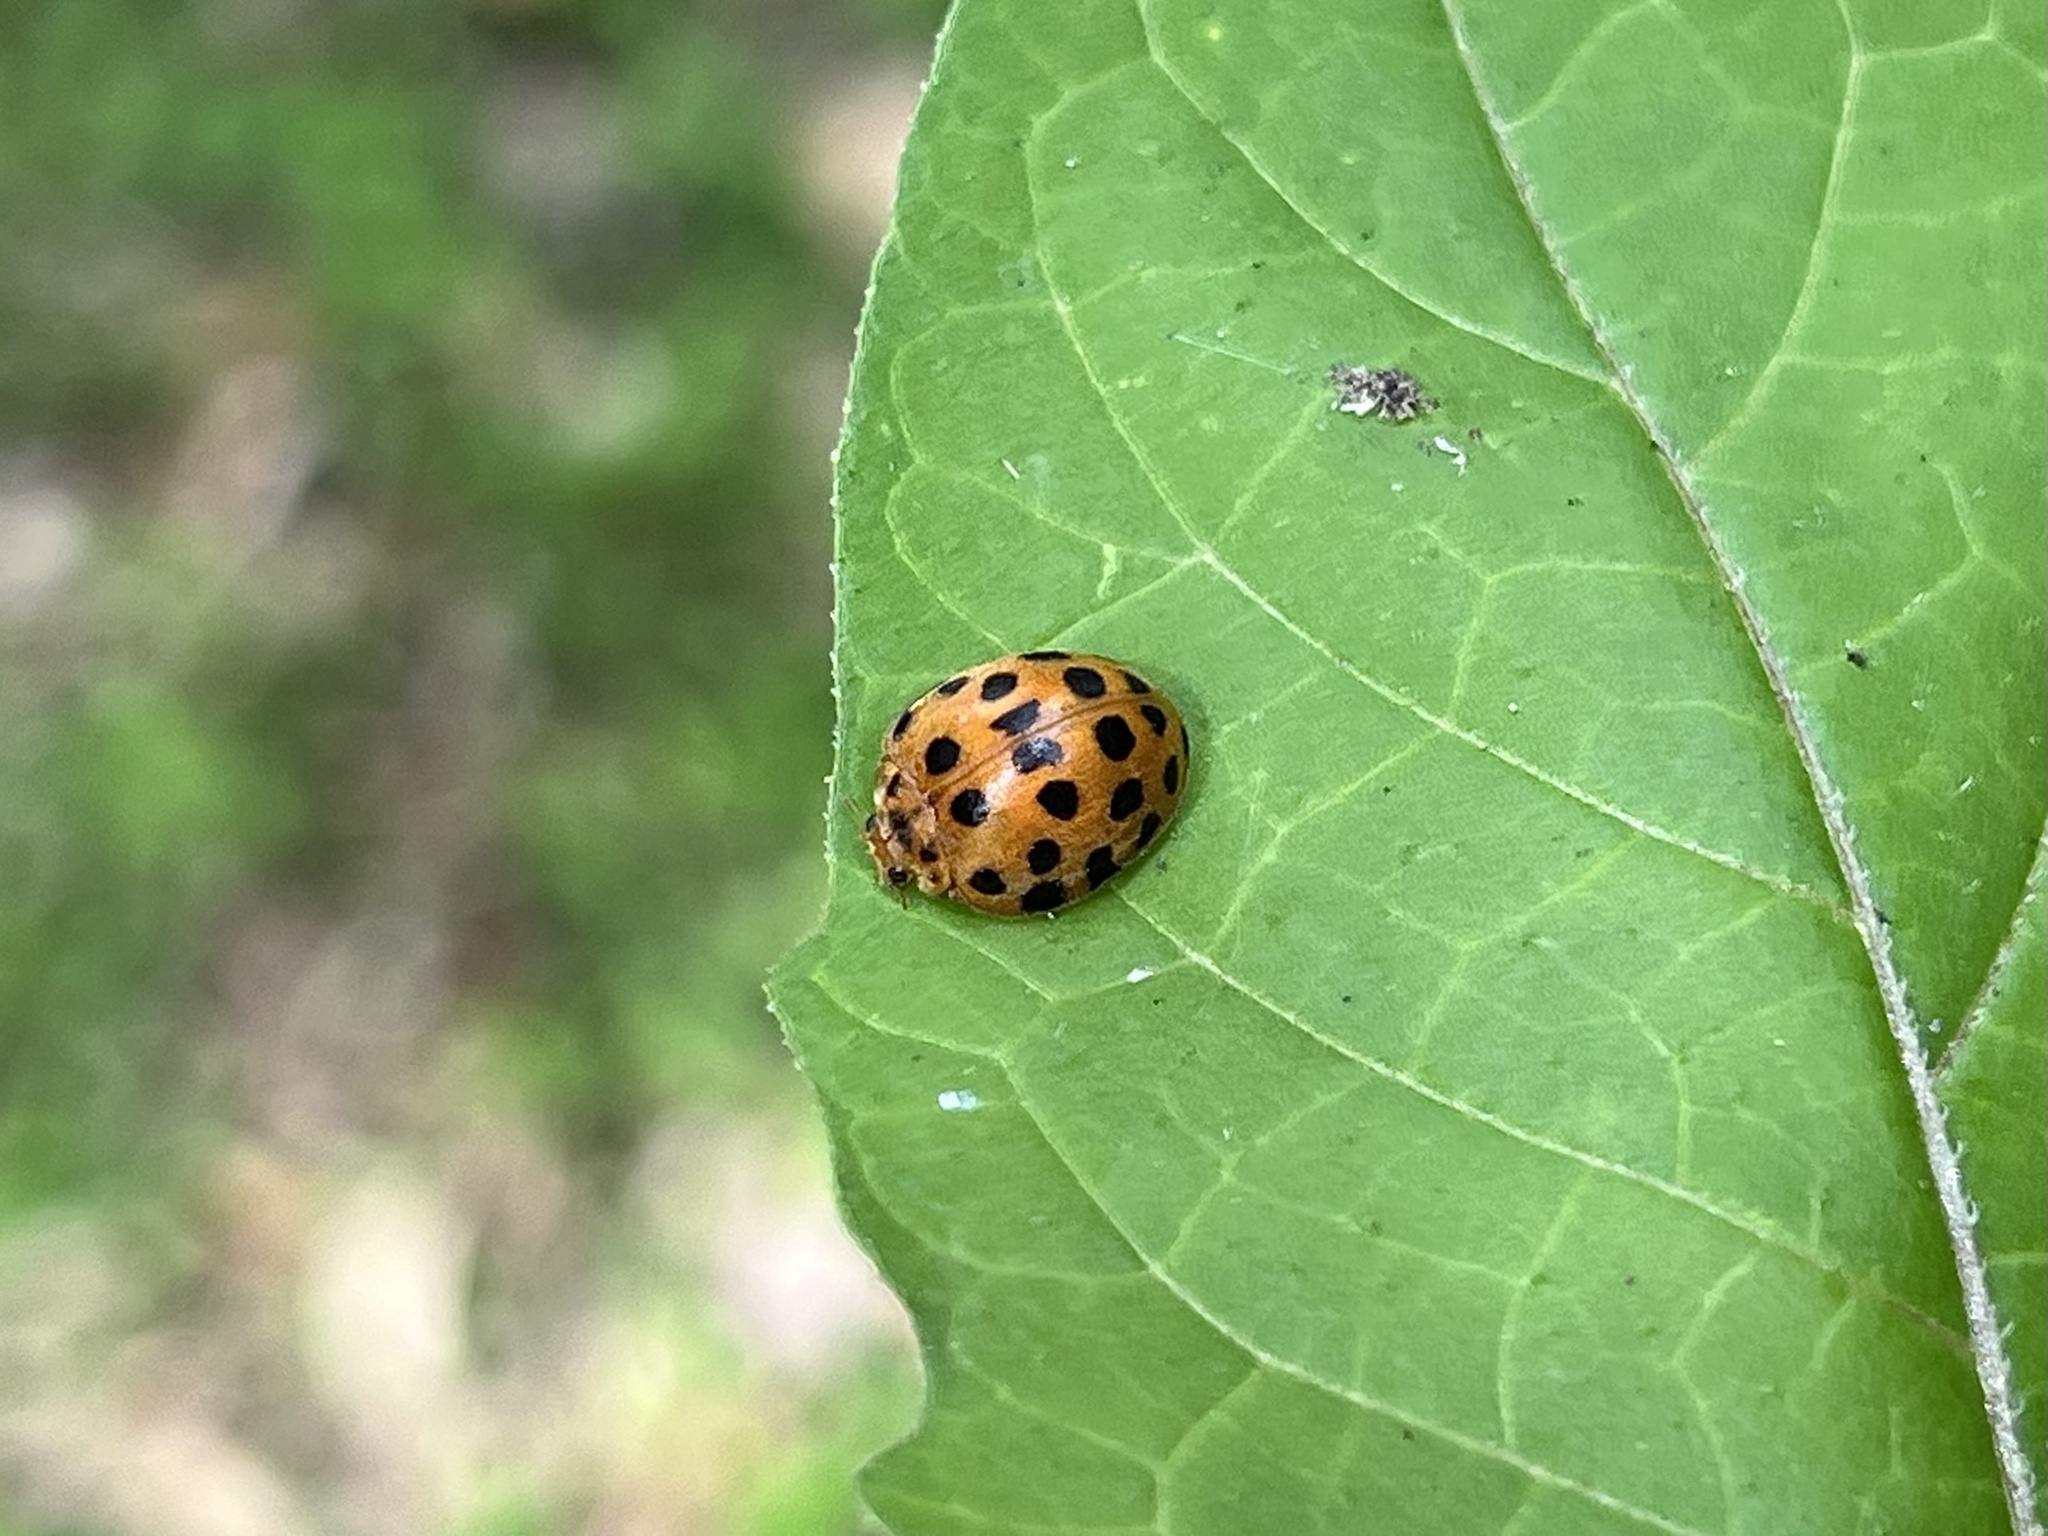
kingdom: Animalia
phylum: Arthropoda
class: Insecta
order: Coleoptera
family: Coccinellidae
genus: Henosepilachna
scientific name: Henosepilachna vigintioctopunctata
